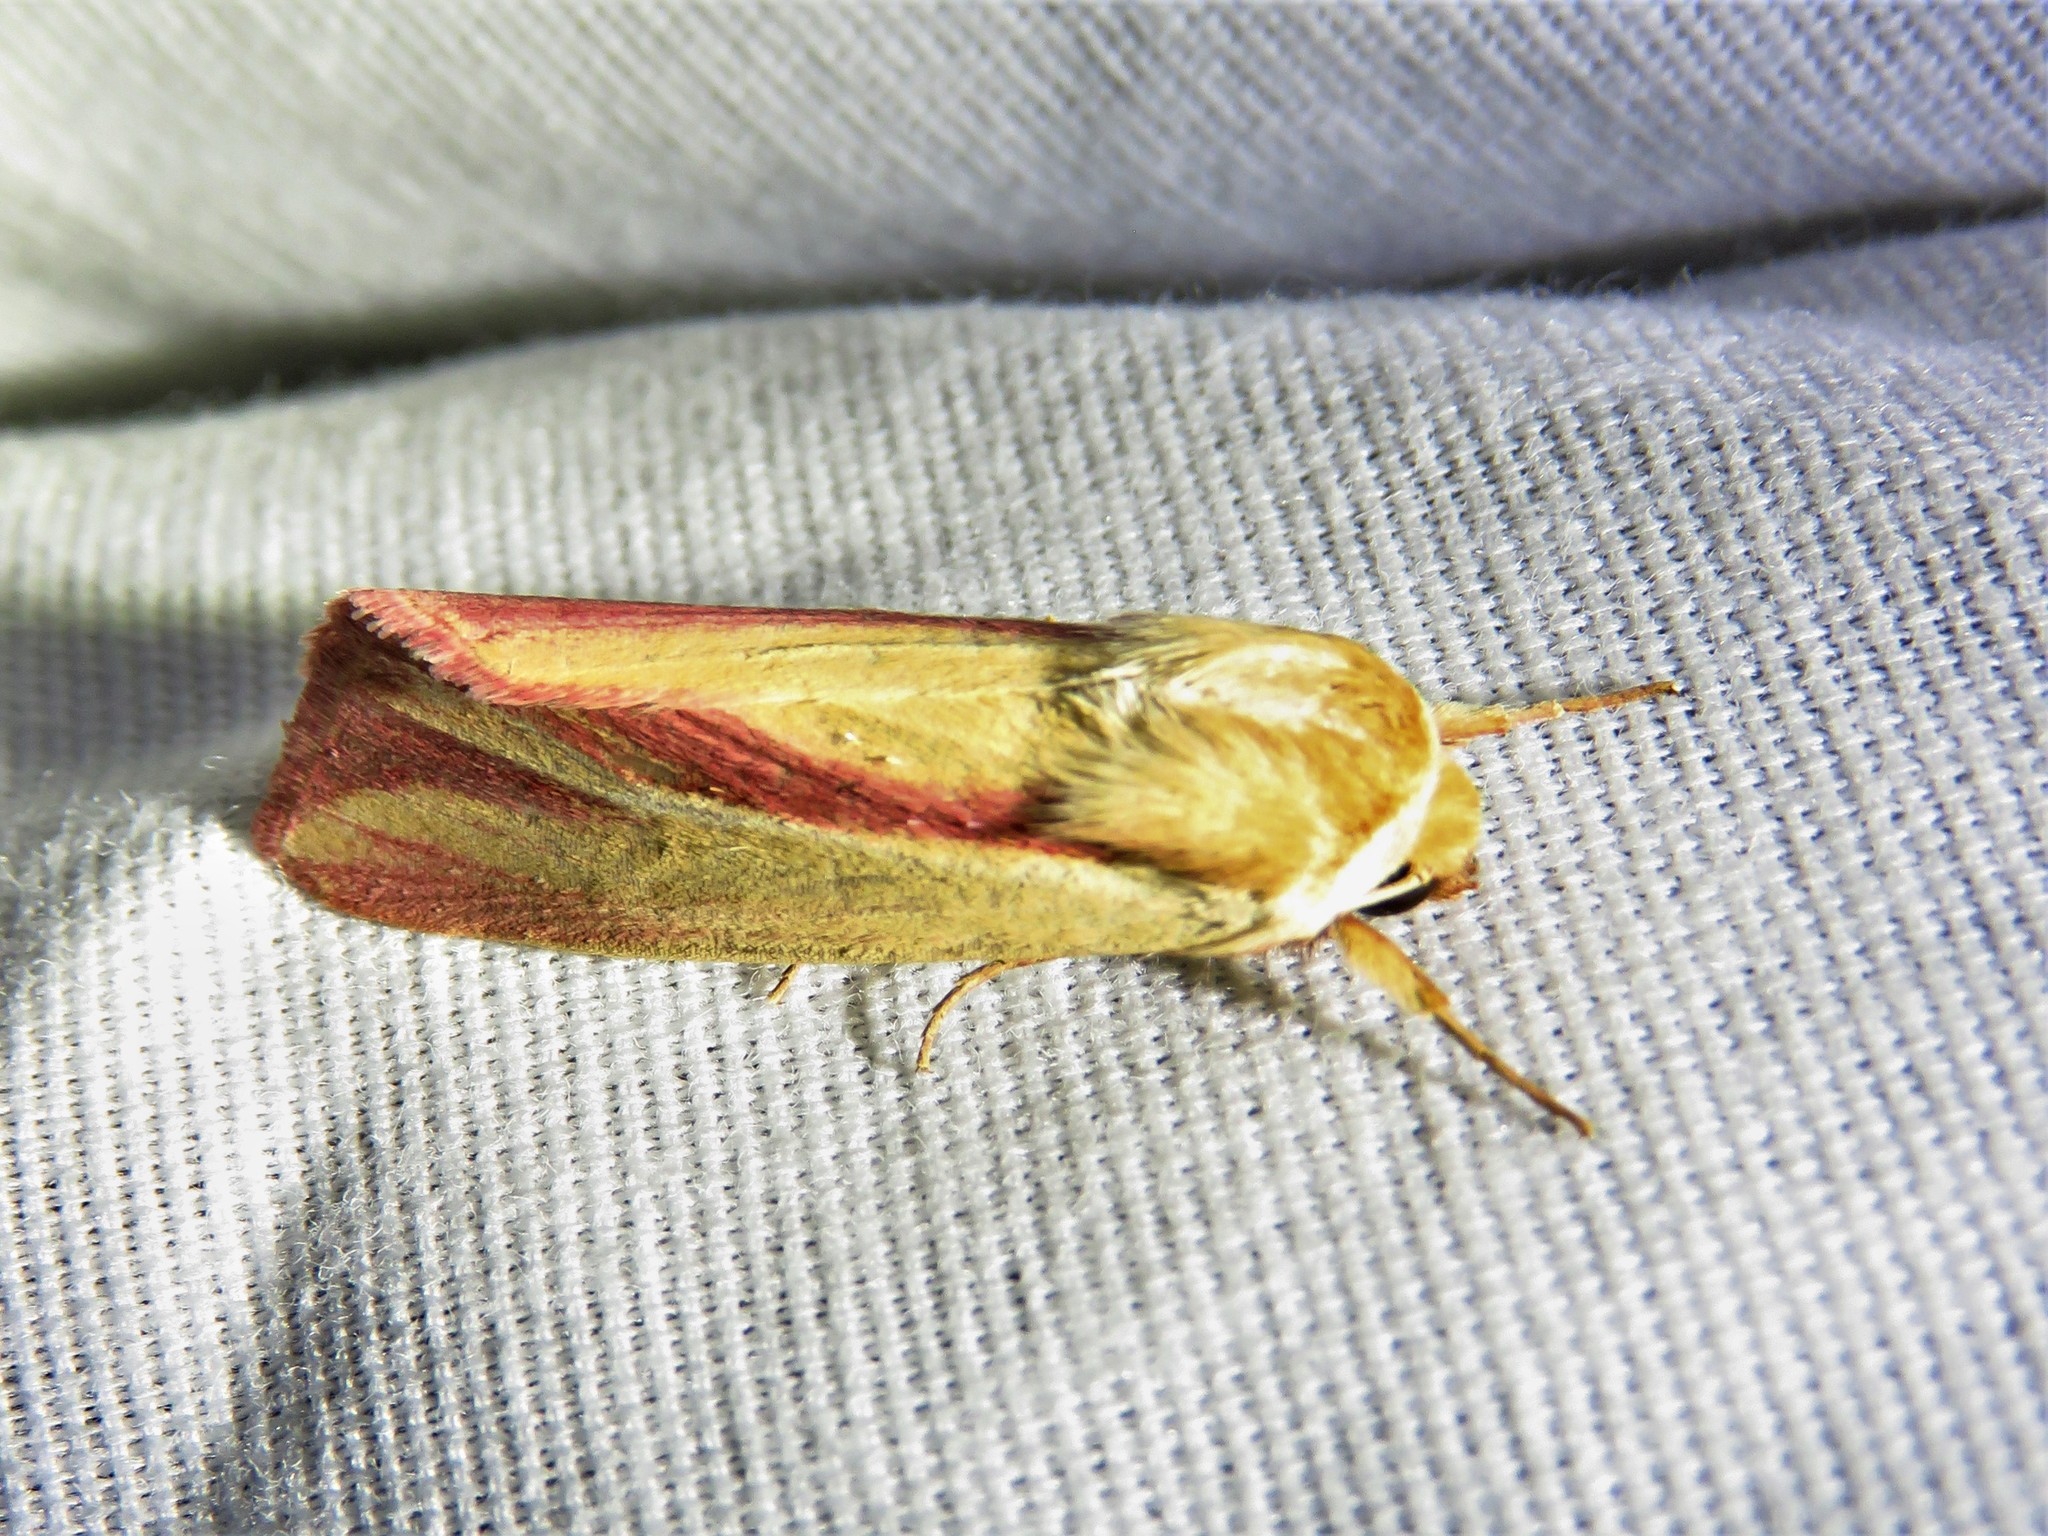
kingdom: Animalia
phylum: Arthropoda
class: Insecta
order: Lepidoptera
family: Noctuidae
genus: Dargida
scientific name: Dargida rubripennis
